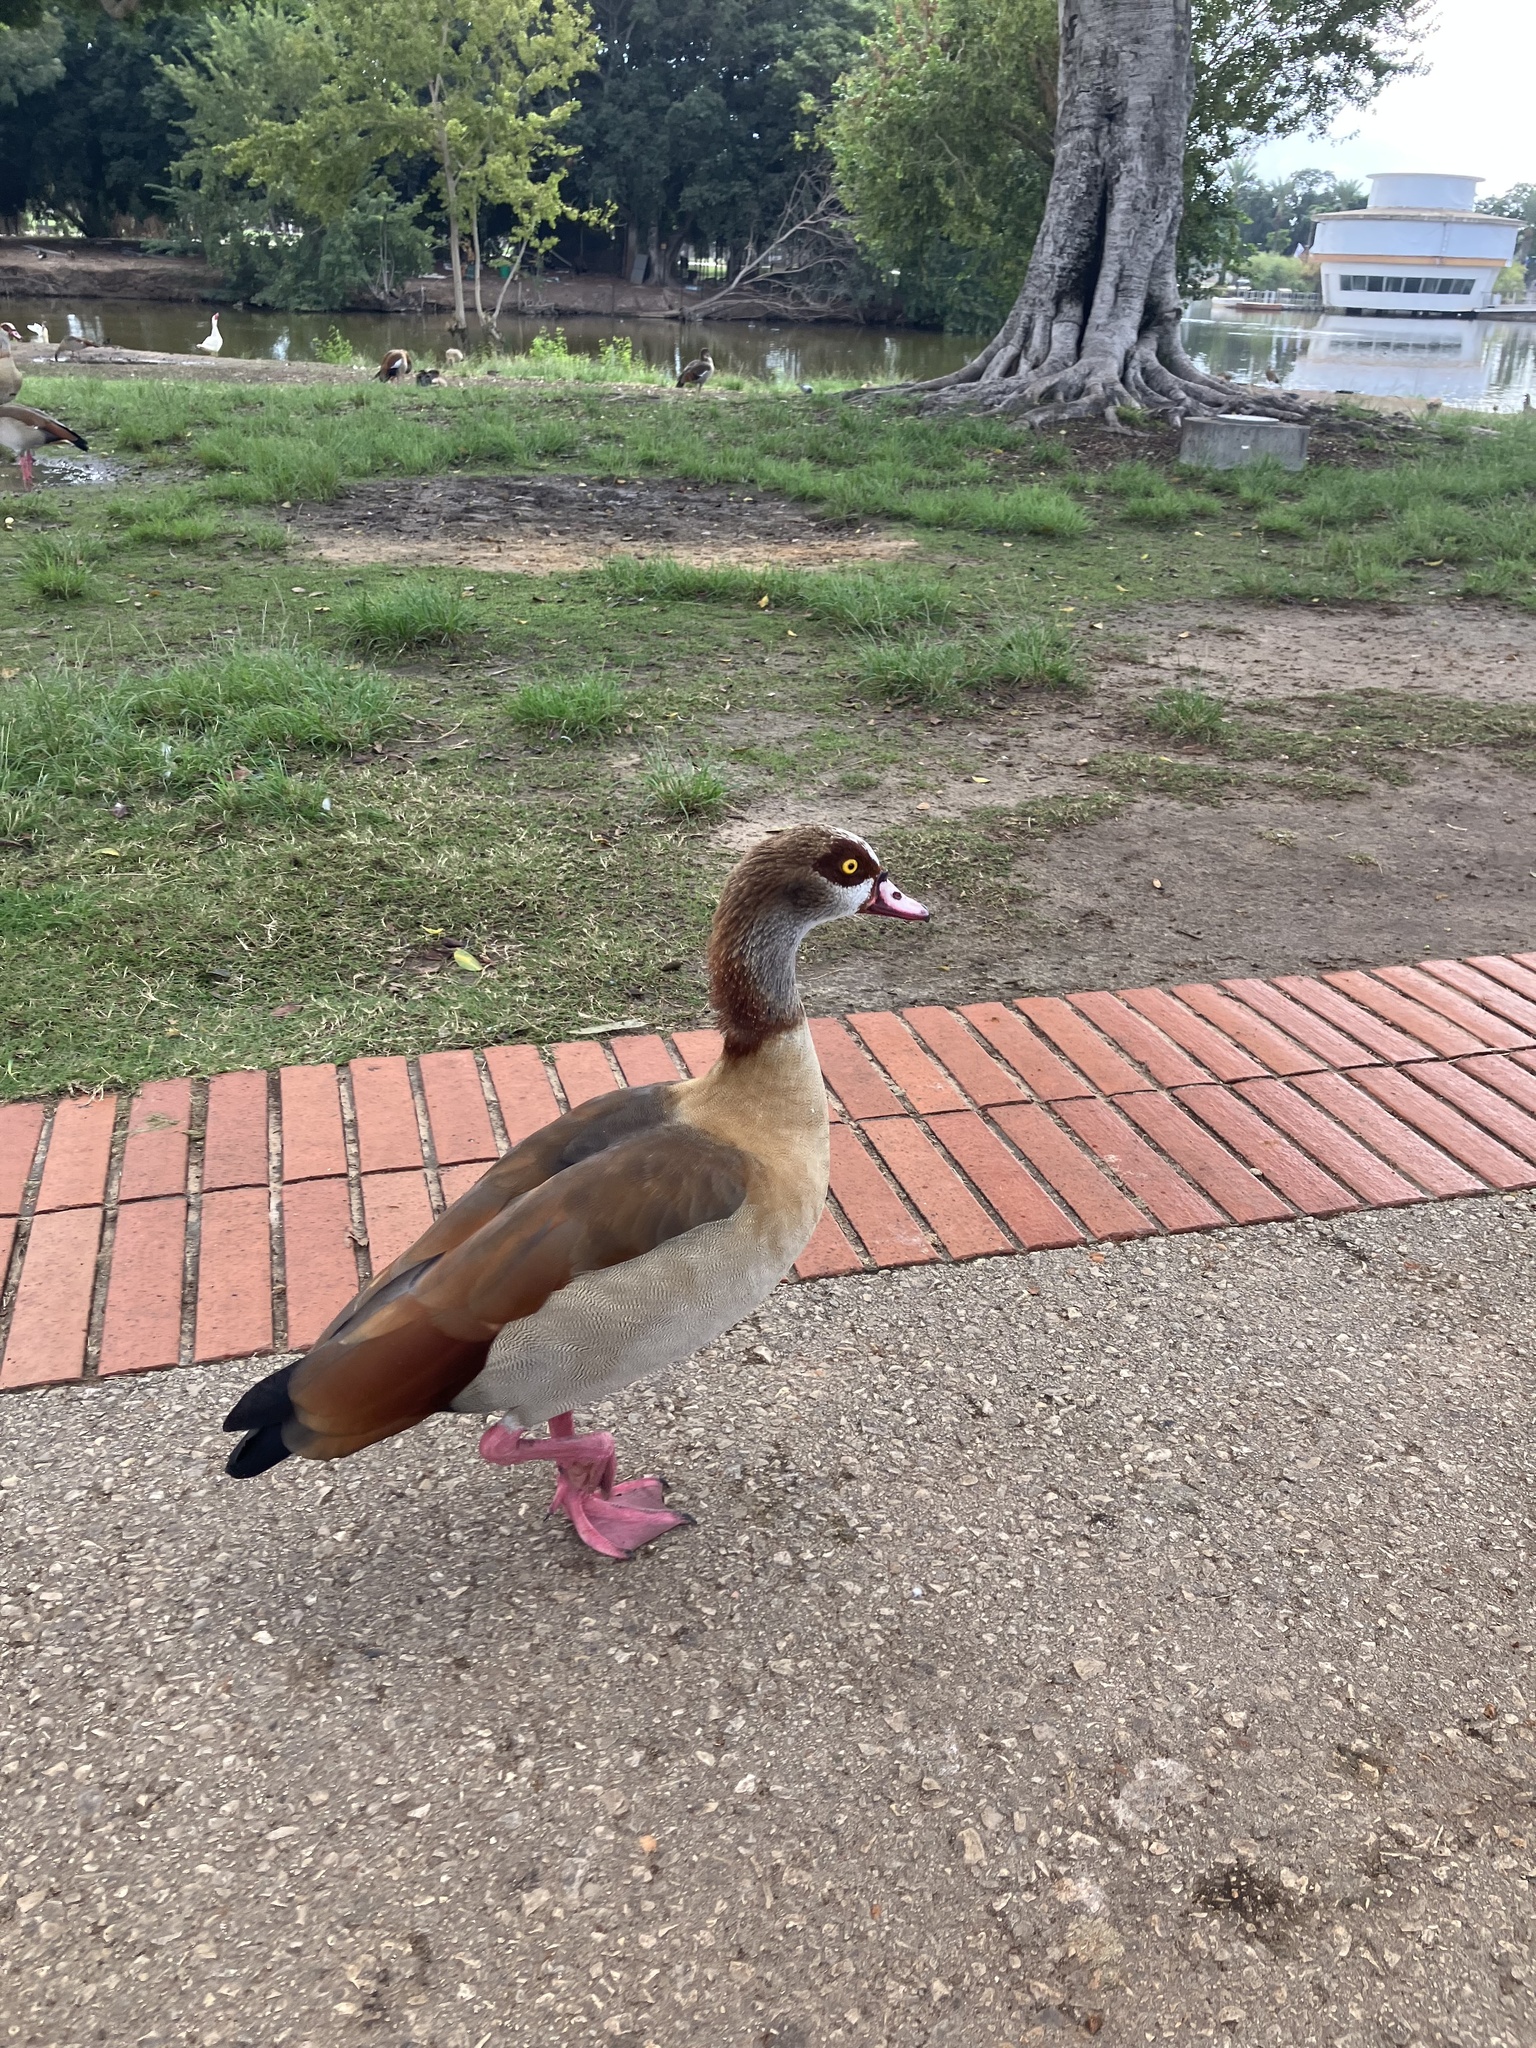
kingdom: Animalia
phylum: Chordata
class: Aves
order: Anseriformes
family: Anatidae
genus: Alopochen
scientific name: Alopochen aegyptiaca
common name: Egyptian goose
